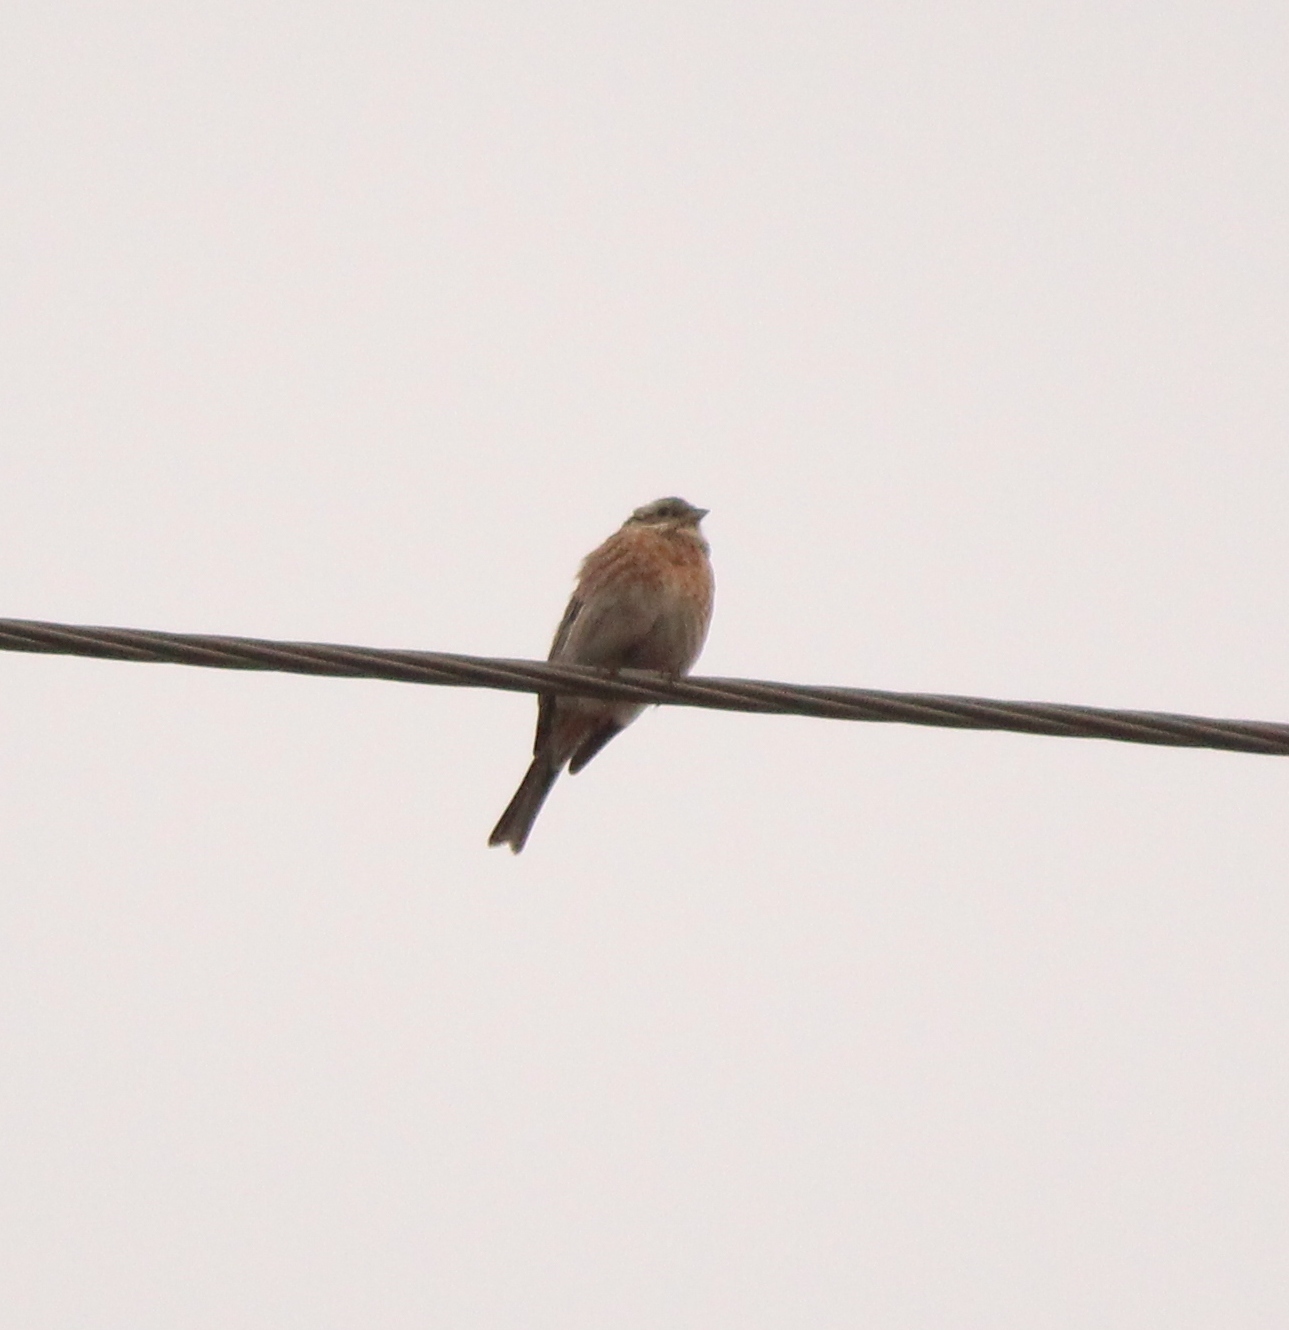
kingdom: Animalia
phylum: Chordata
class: Aves
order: Passeriformes
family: Emberizidae
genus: Emberiza
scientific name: Emberiza leucocephalos
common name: Pine bunting
